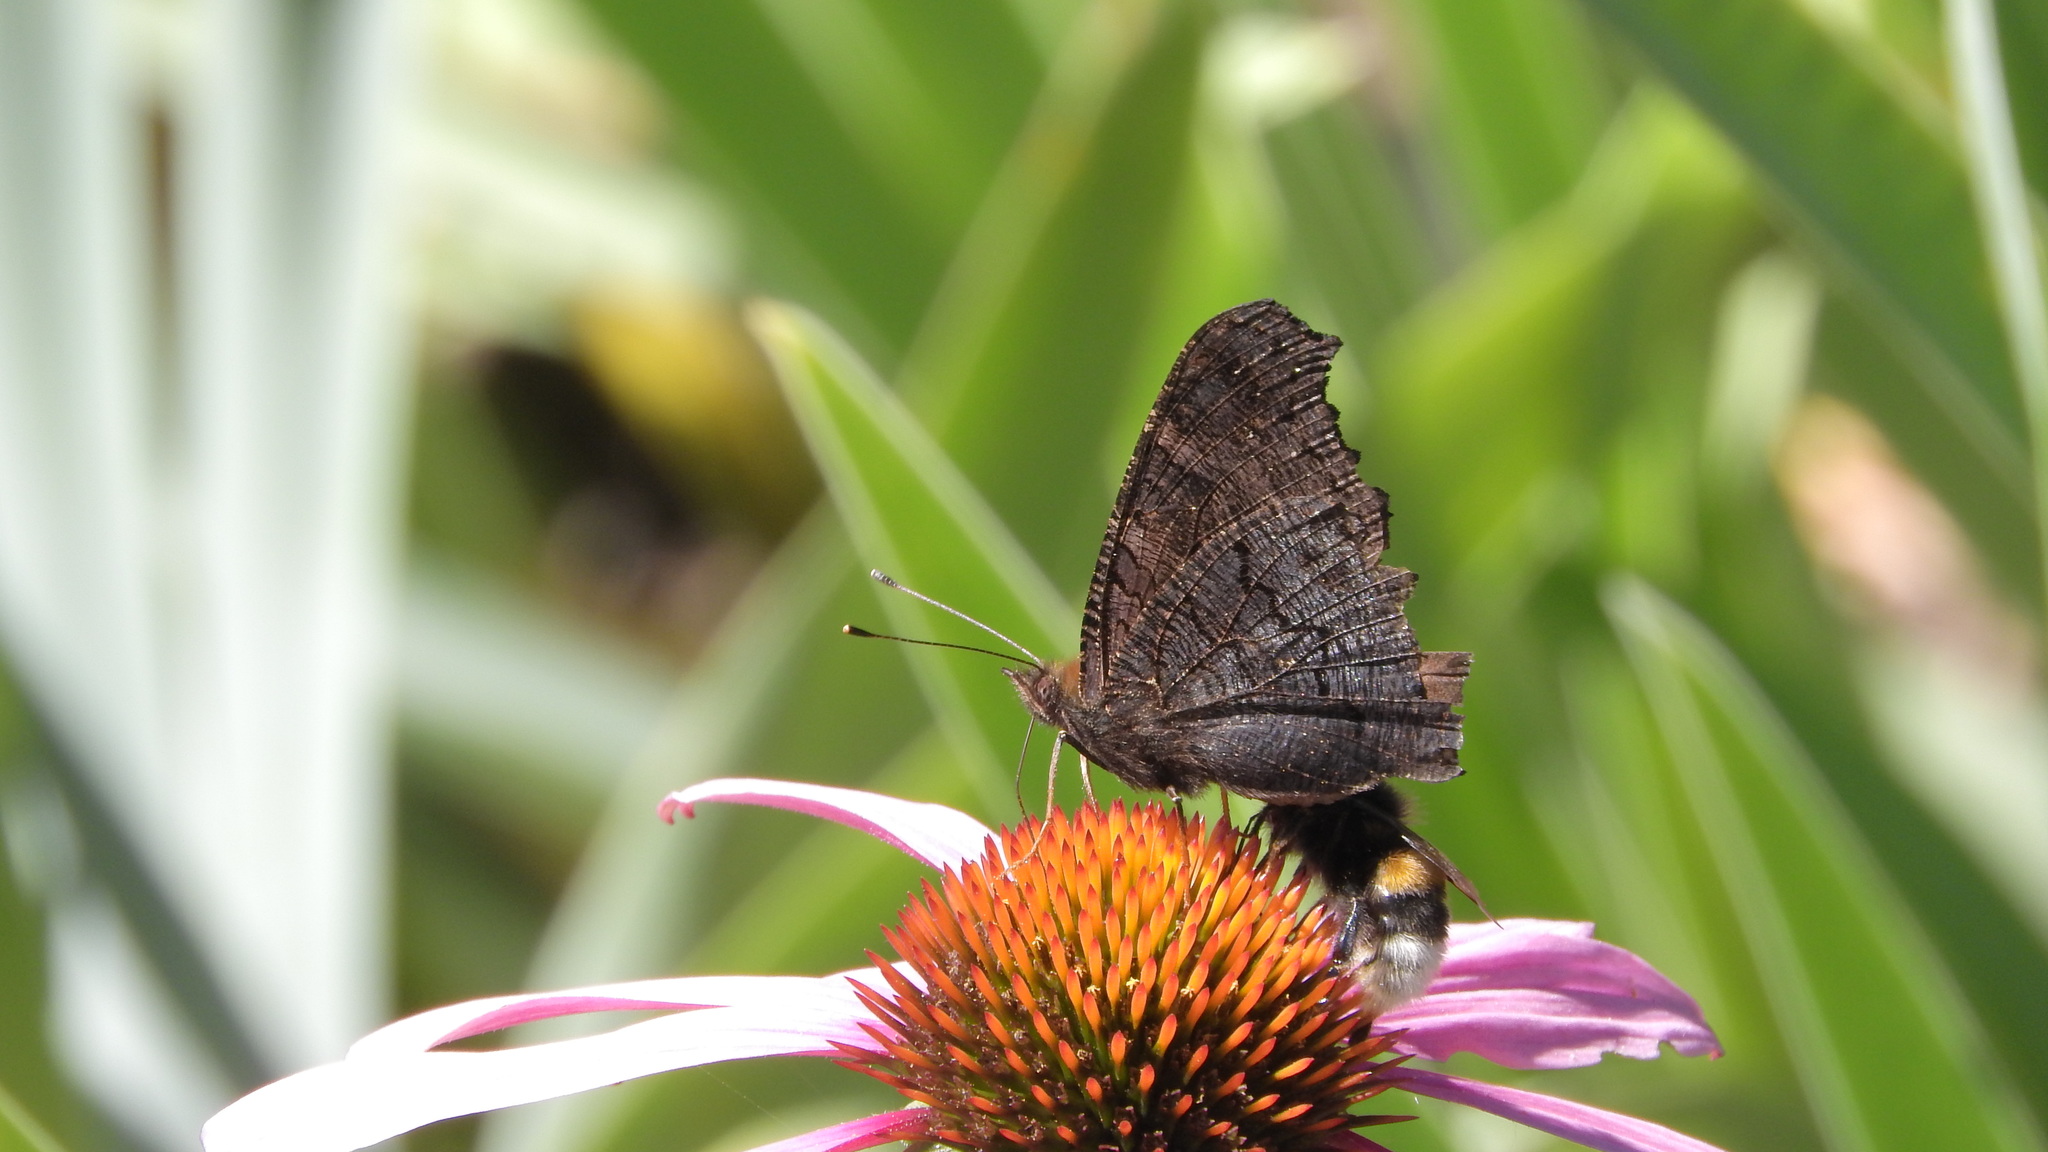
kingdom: Animalia
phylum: Arthropoda
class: Insecta
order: Lepidoptera
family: Nymphalidae
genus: Aglais
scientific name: Aglais io
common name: Peacock
